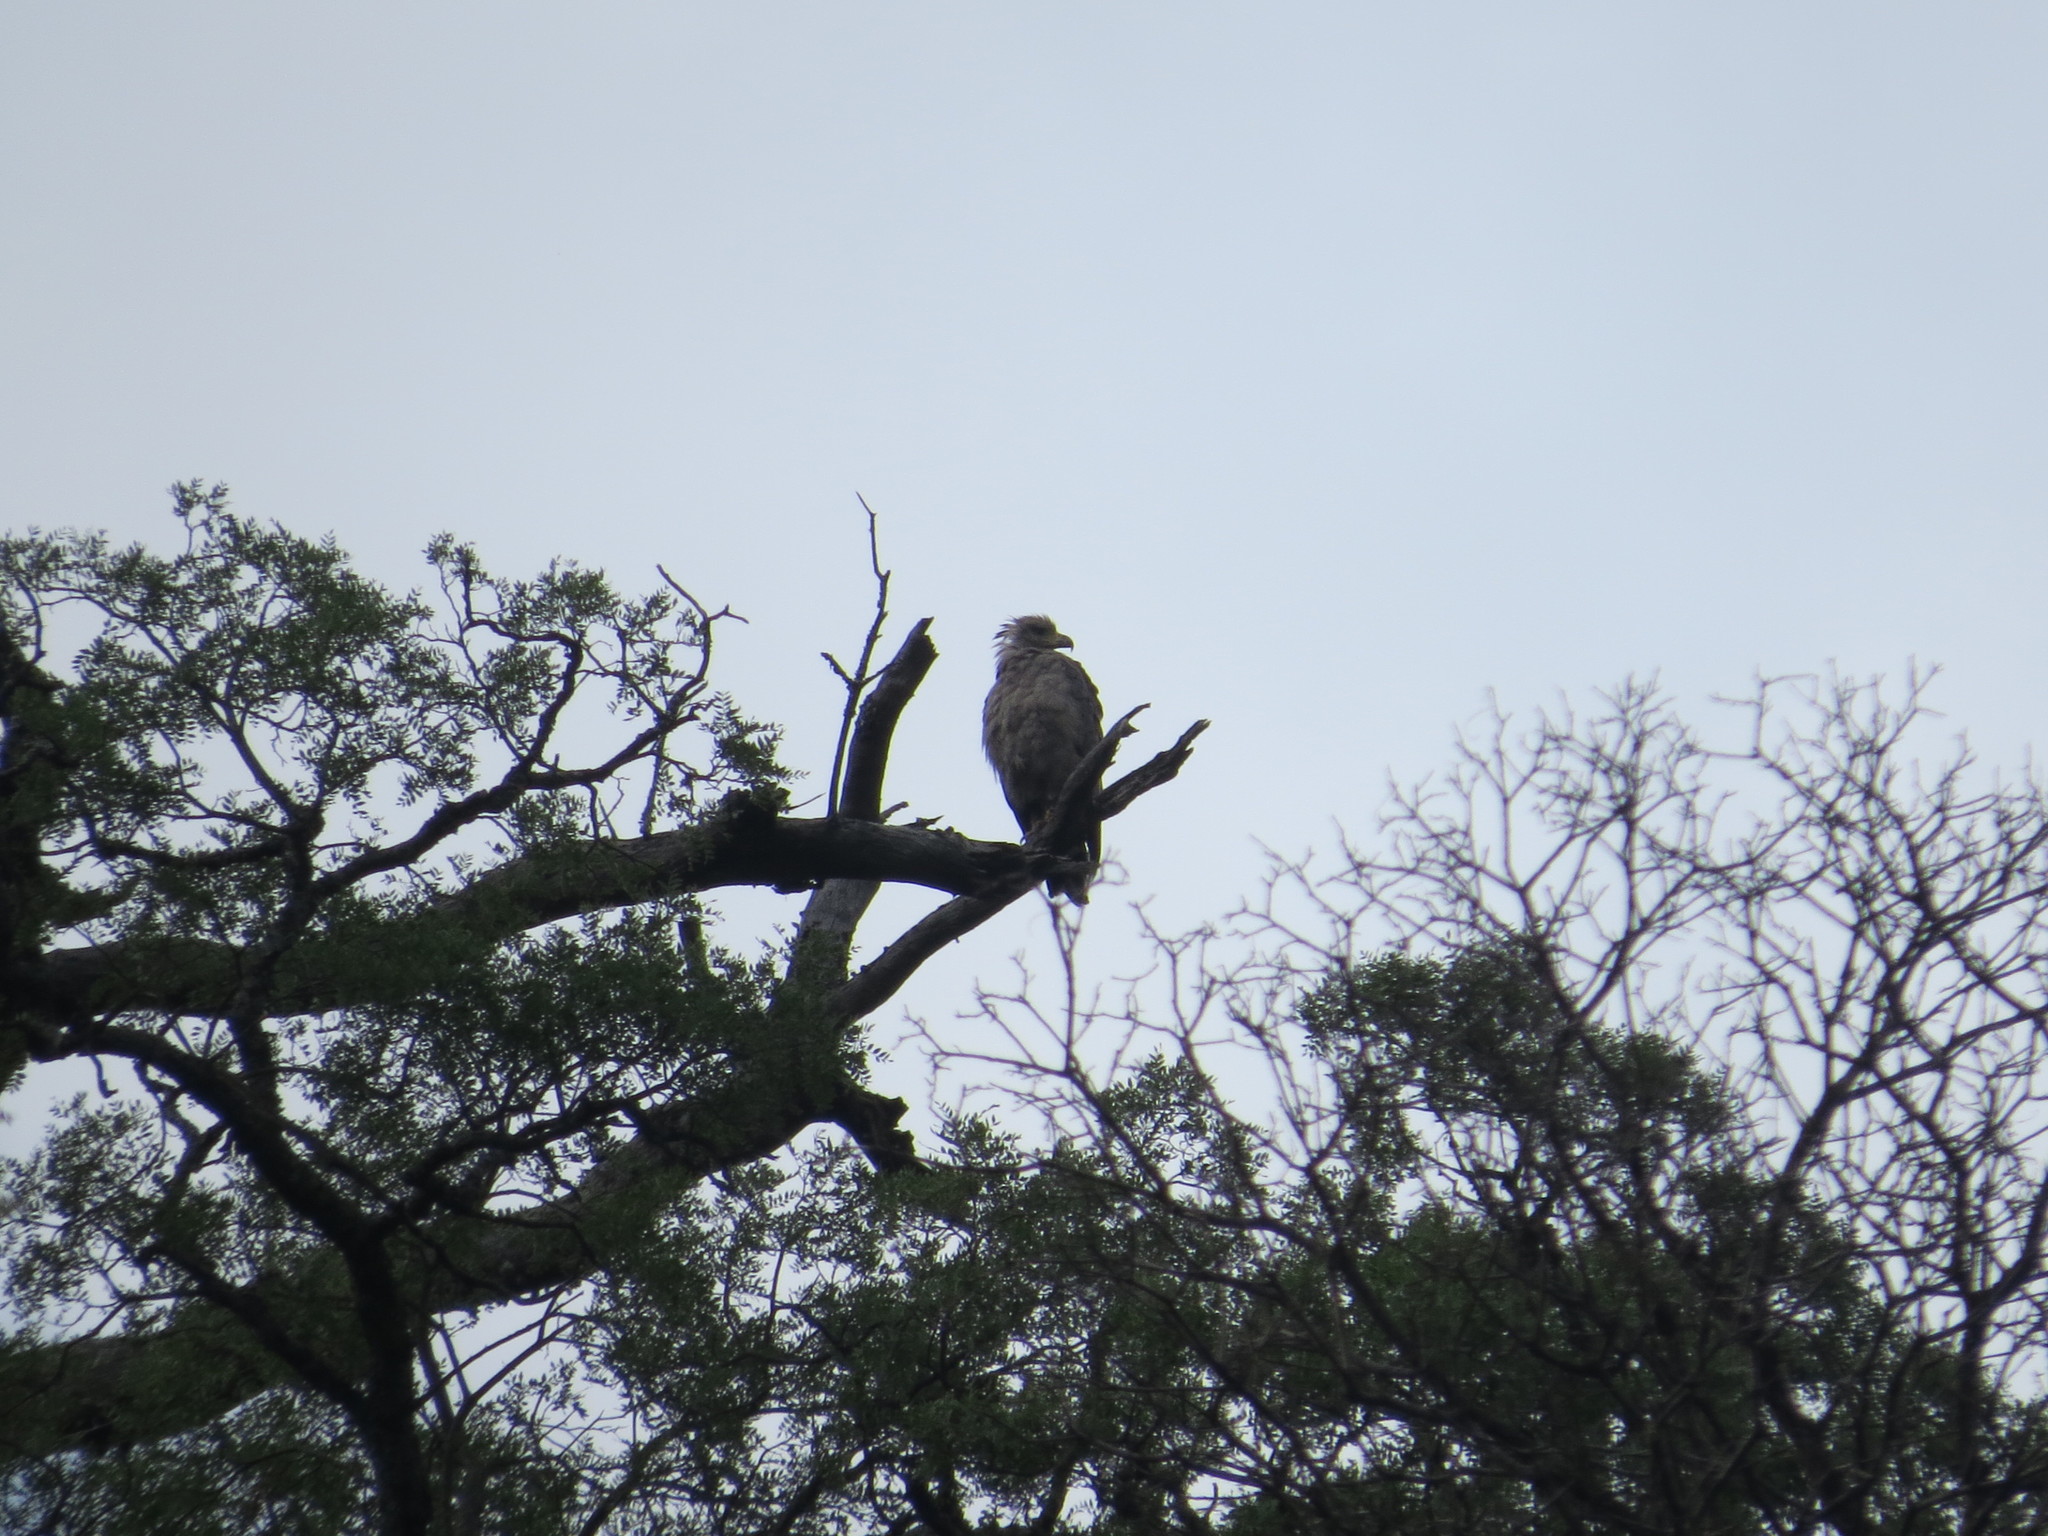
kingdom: Animalia
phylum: Chordata
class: Aves
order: Accipitriformes
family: Accipitridae
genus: Harpyhaliaetus
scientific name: Harpyhaliaetus coronatus
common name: Crowned solitary eagle
